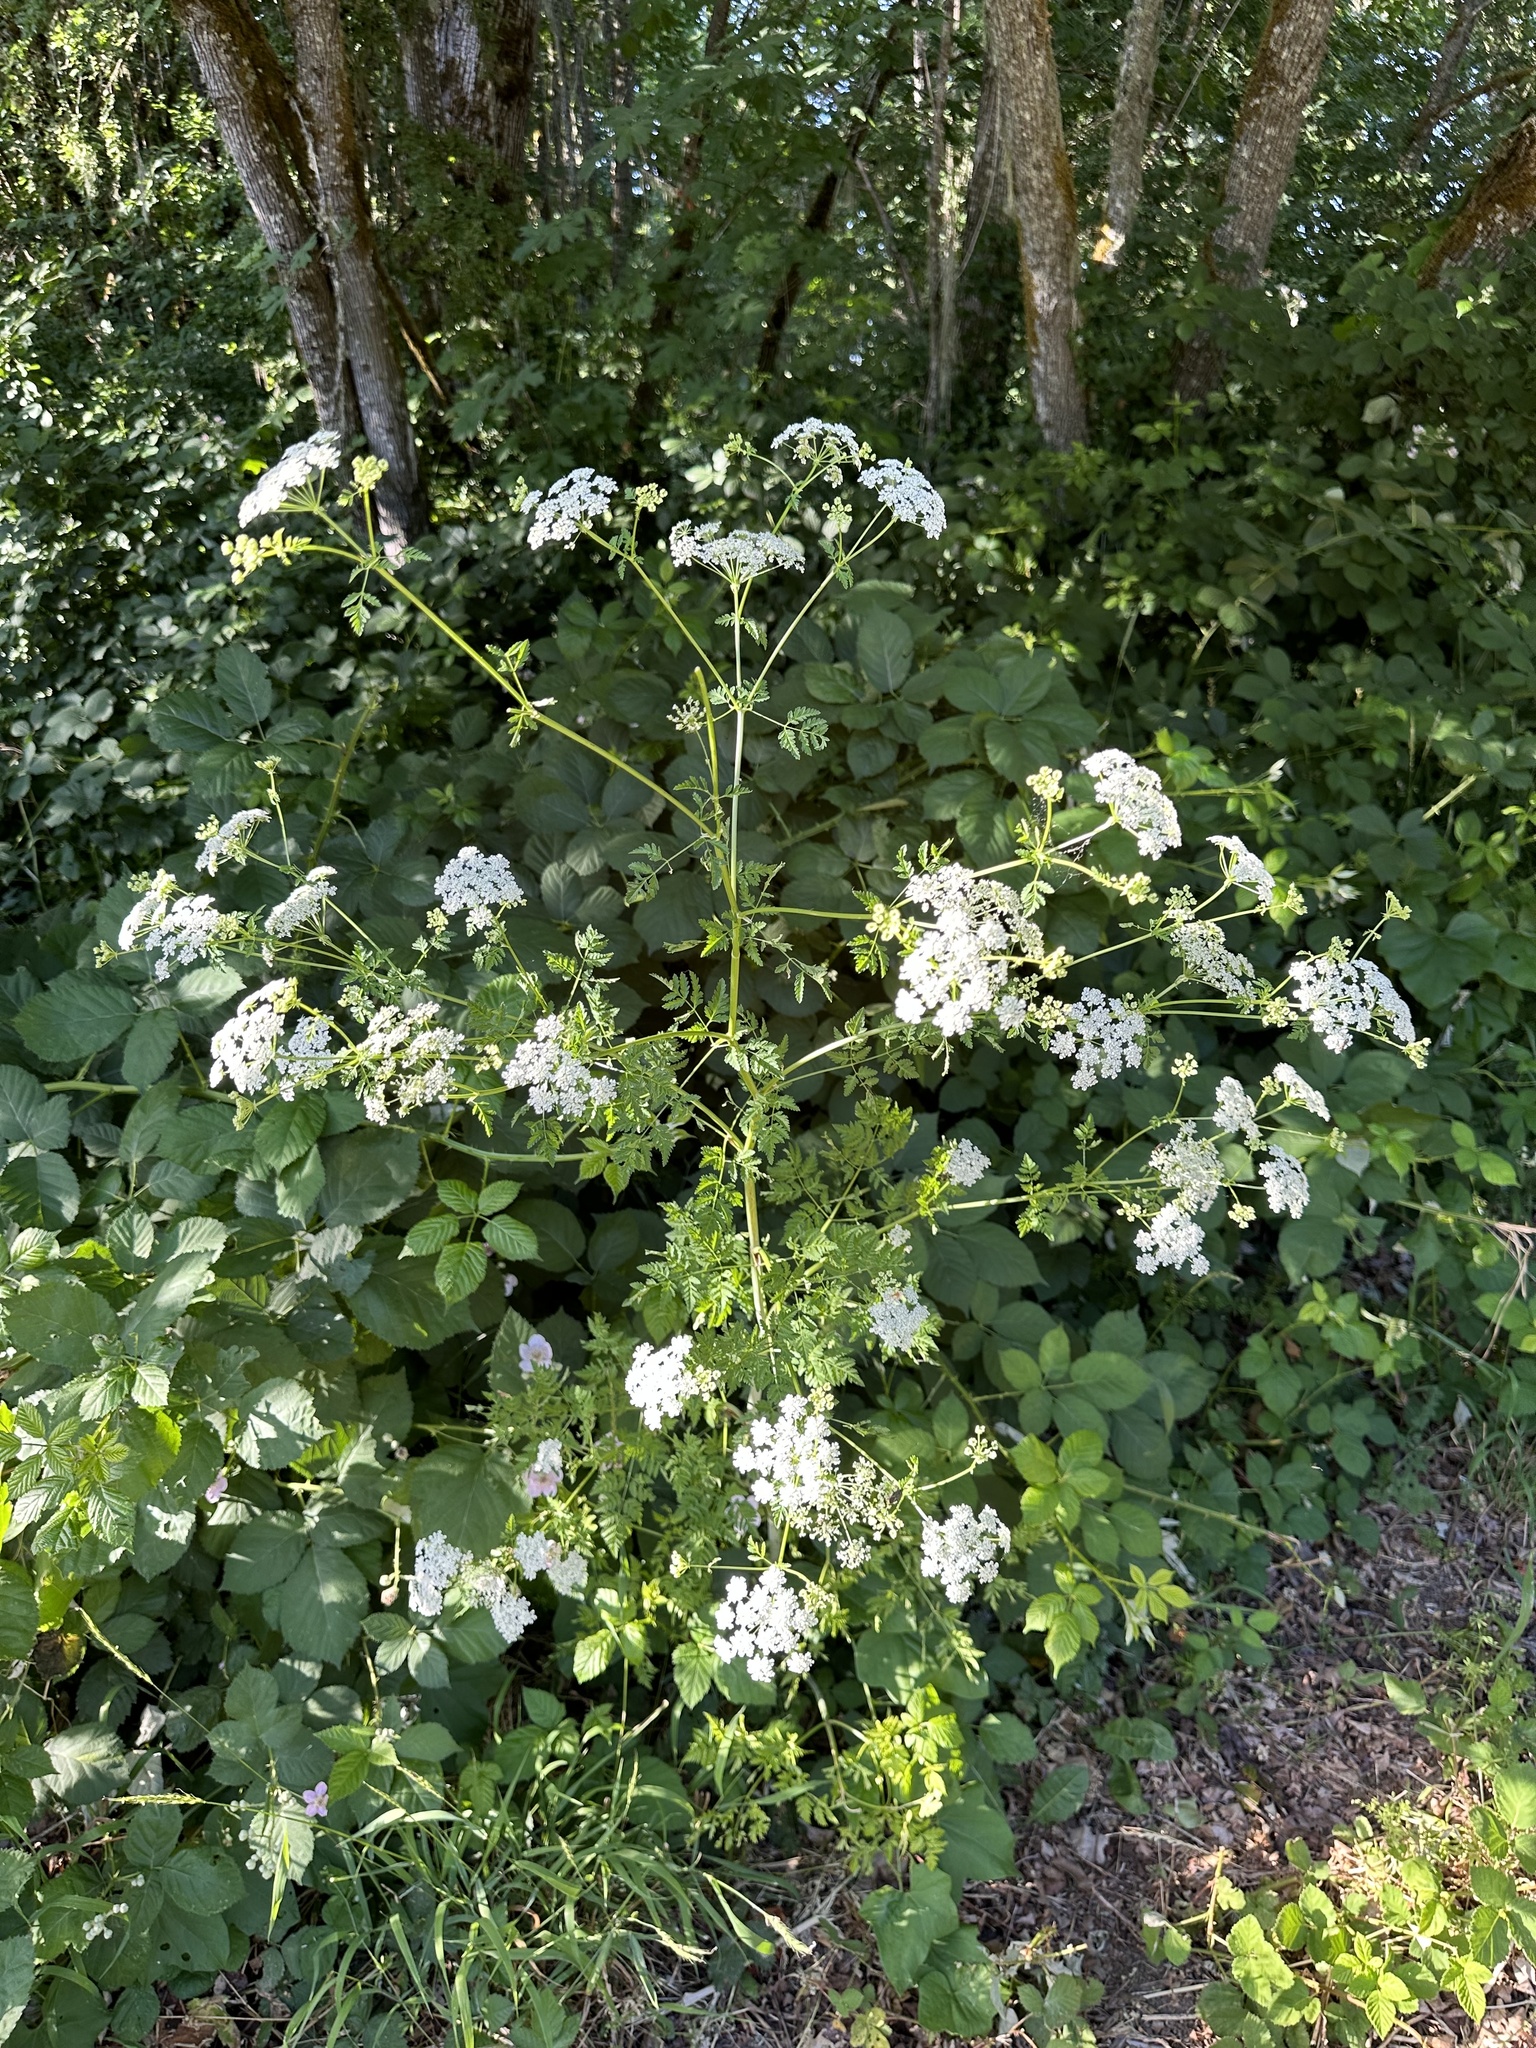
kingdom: Plantae
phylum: Tracheophyta
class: Magnoliopsida
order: Apiales
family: Apiaceae
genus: Conium
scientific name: Conium maculatum
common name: Hemlock
